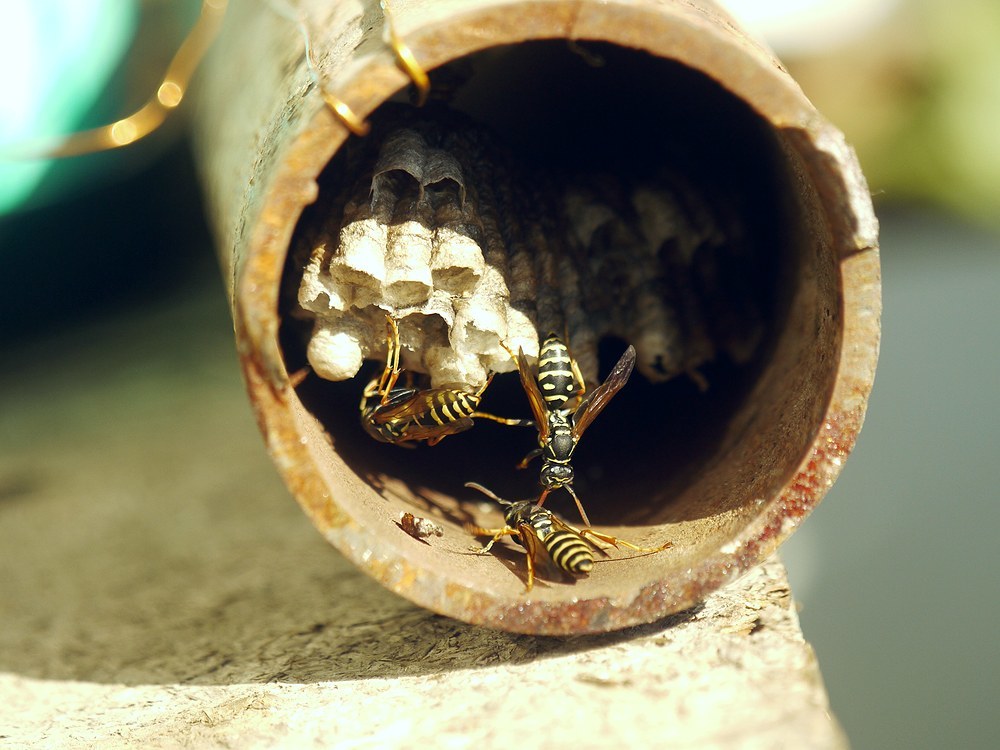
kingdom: Animalia
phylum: Arthropoda
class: Insecta
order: Hymenoptera
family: Eumenidae
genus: Polistes
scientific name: Polistes nimpha
